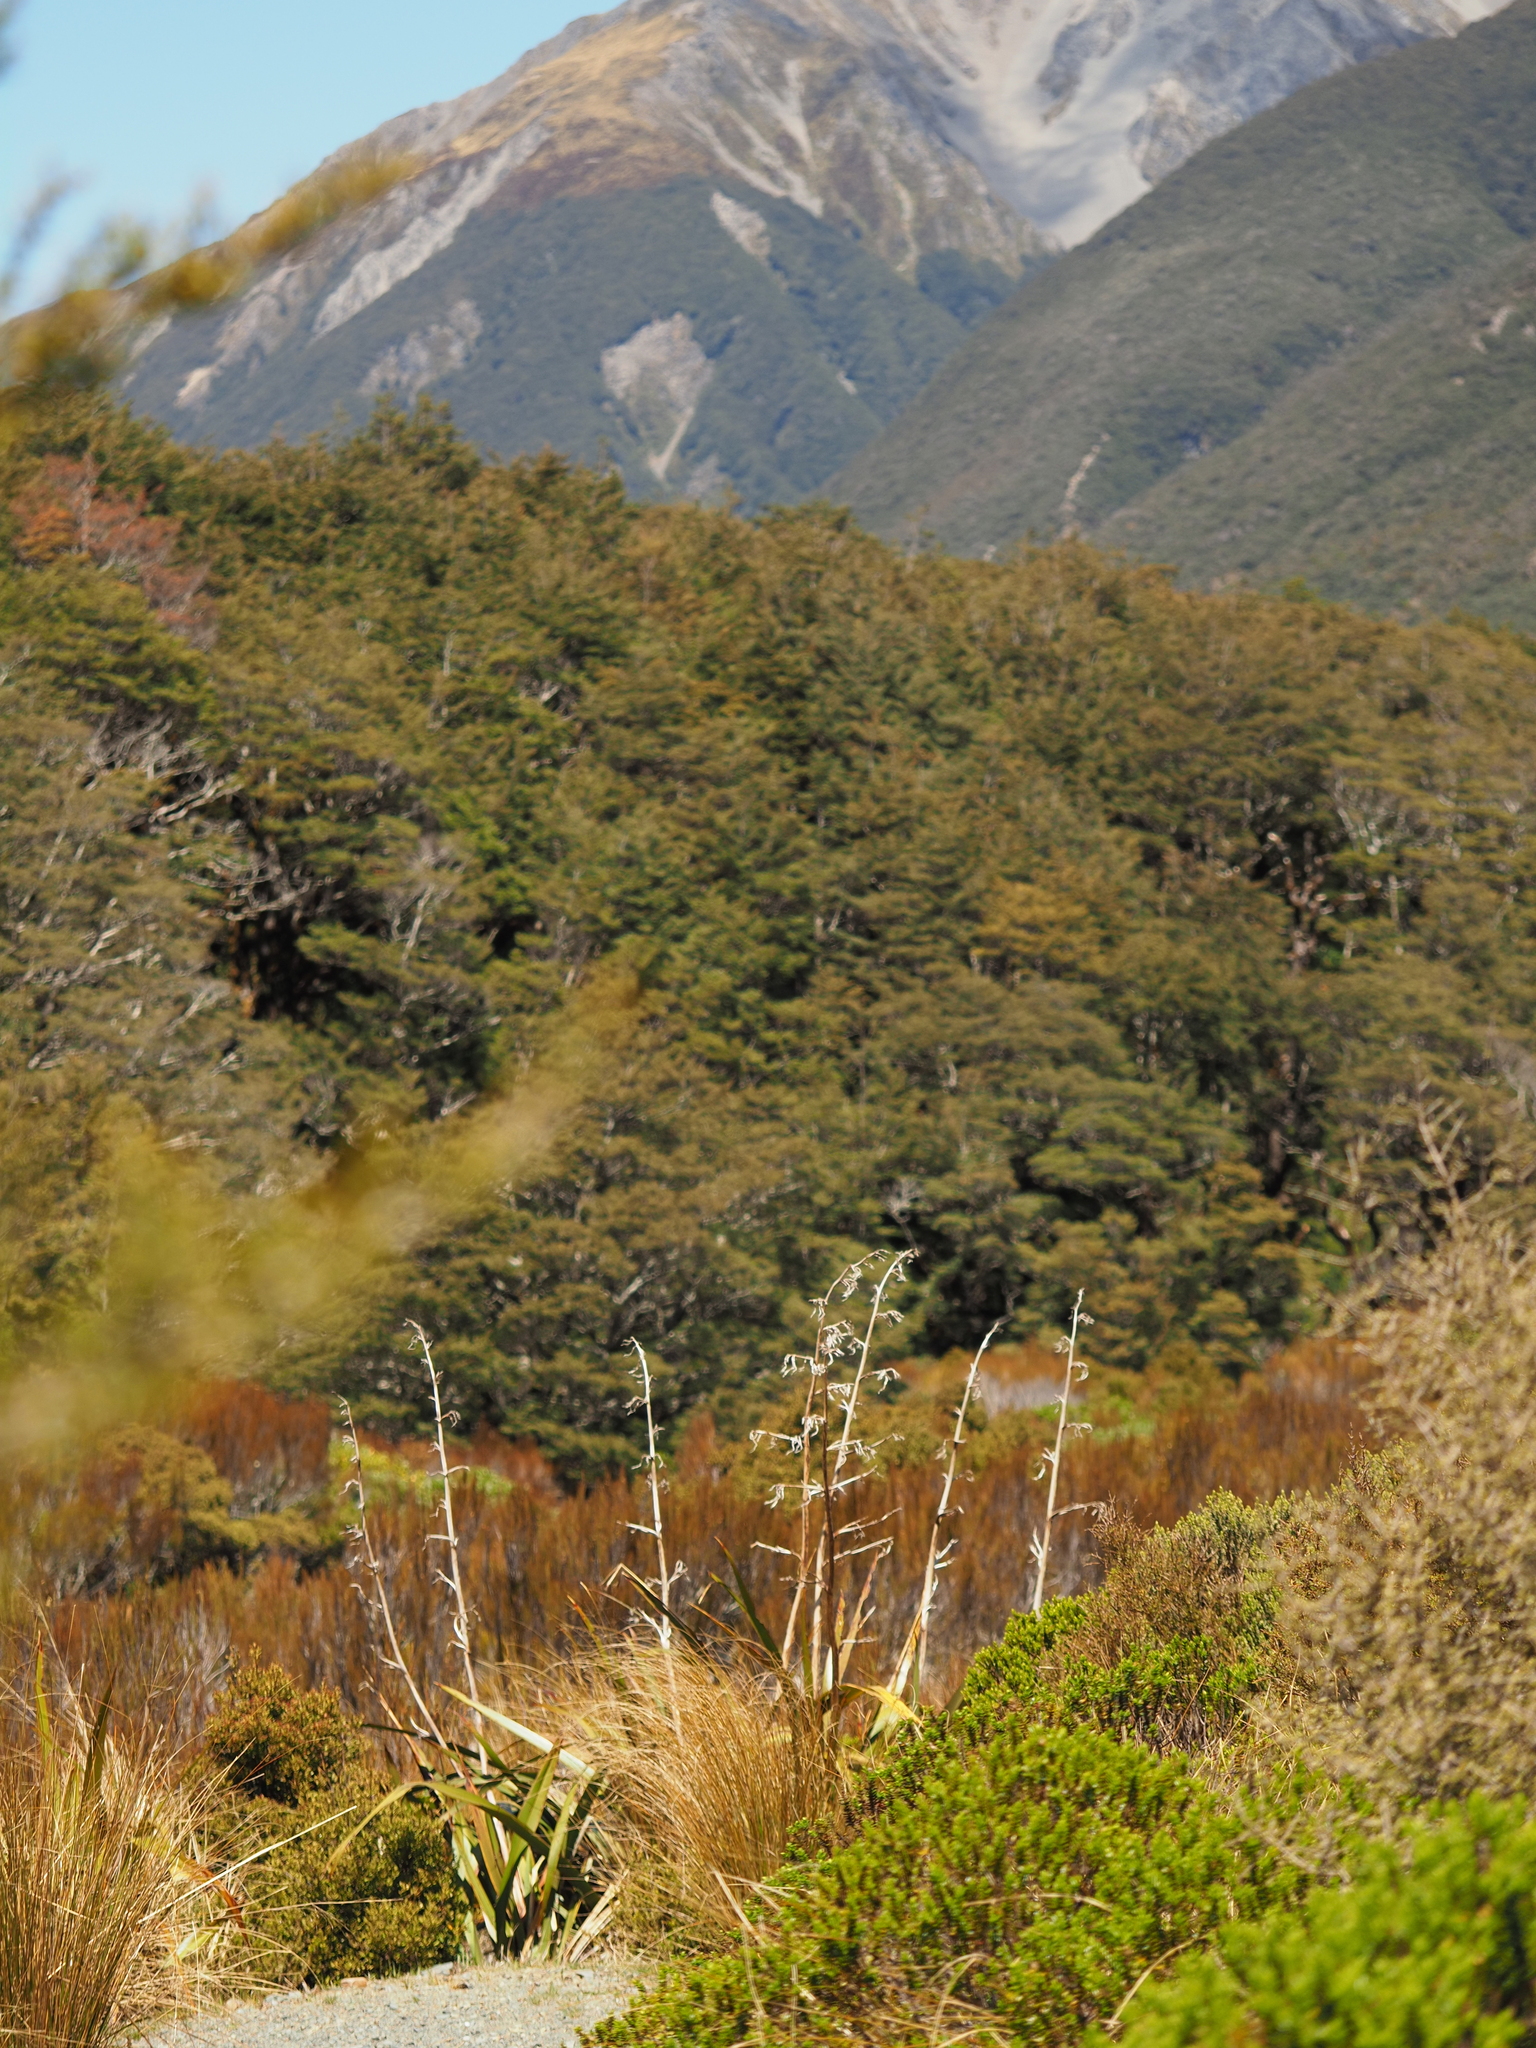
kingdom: Plantae
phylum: Tracheophyta
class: Liliopsida
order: Asparagales
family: Asphodelaceae
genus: Phormium
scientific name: Phormium colensoi
